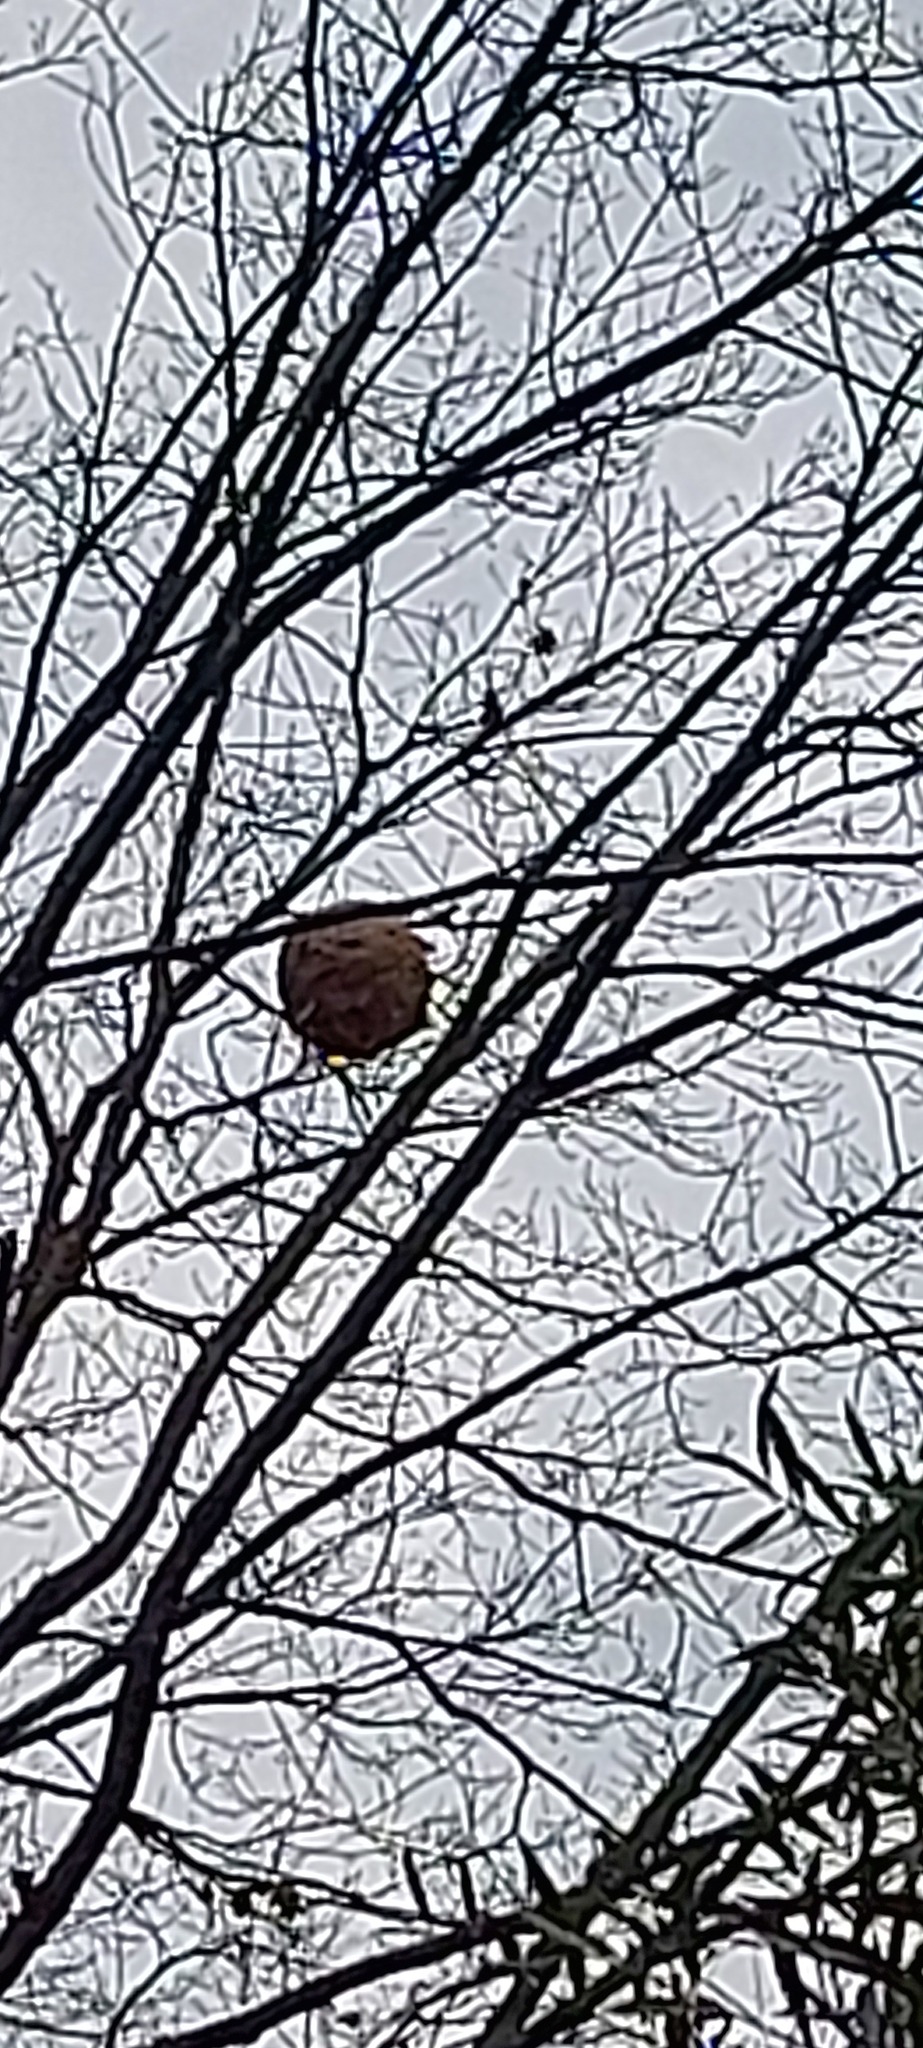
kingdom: Animalia
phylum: Arthropoda
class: Insecta
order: Hymenoptera
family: Vespidae
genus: Vespa
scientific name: Vespa velutina
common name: Asian hornet
